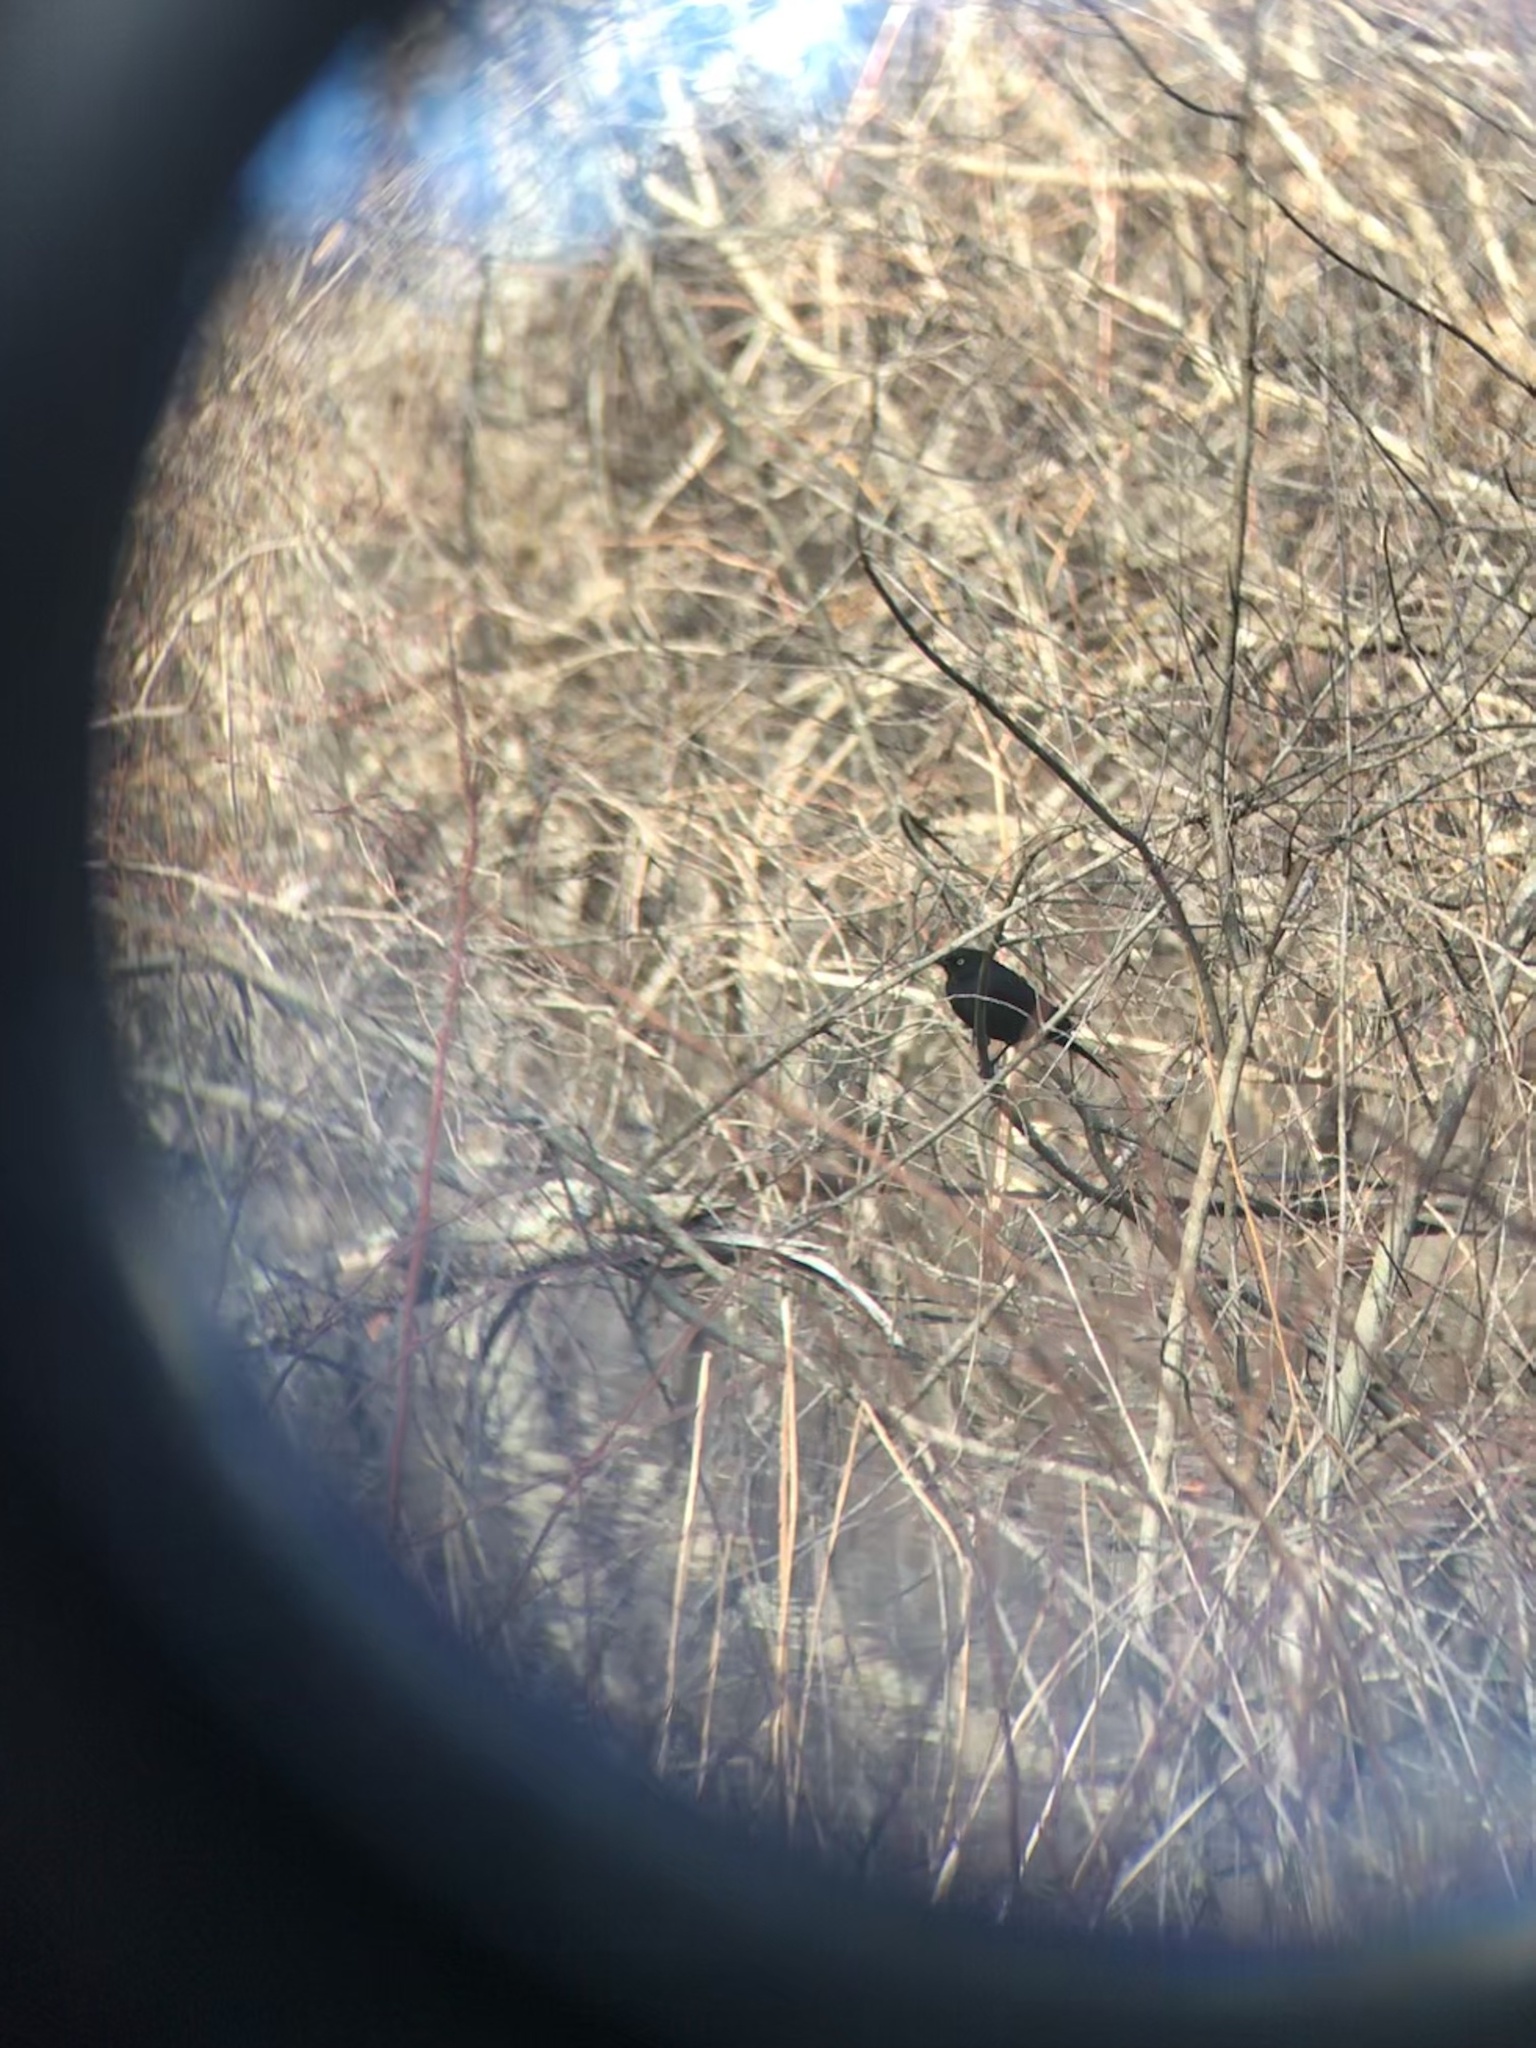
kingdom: Animalia
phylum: Chordata
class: Aves
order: Passeriformes
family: Icteridae
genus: Euphagus
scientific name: Euphagus carolinus
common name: Rusty blackbird
